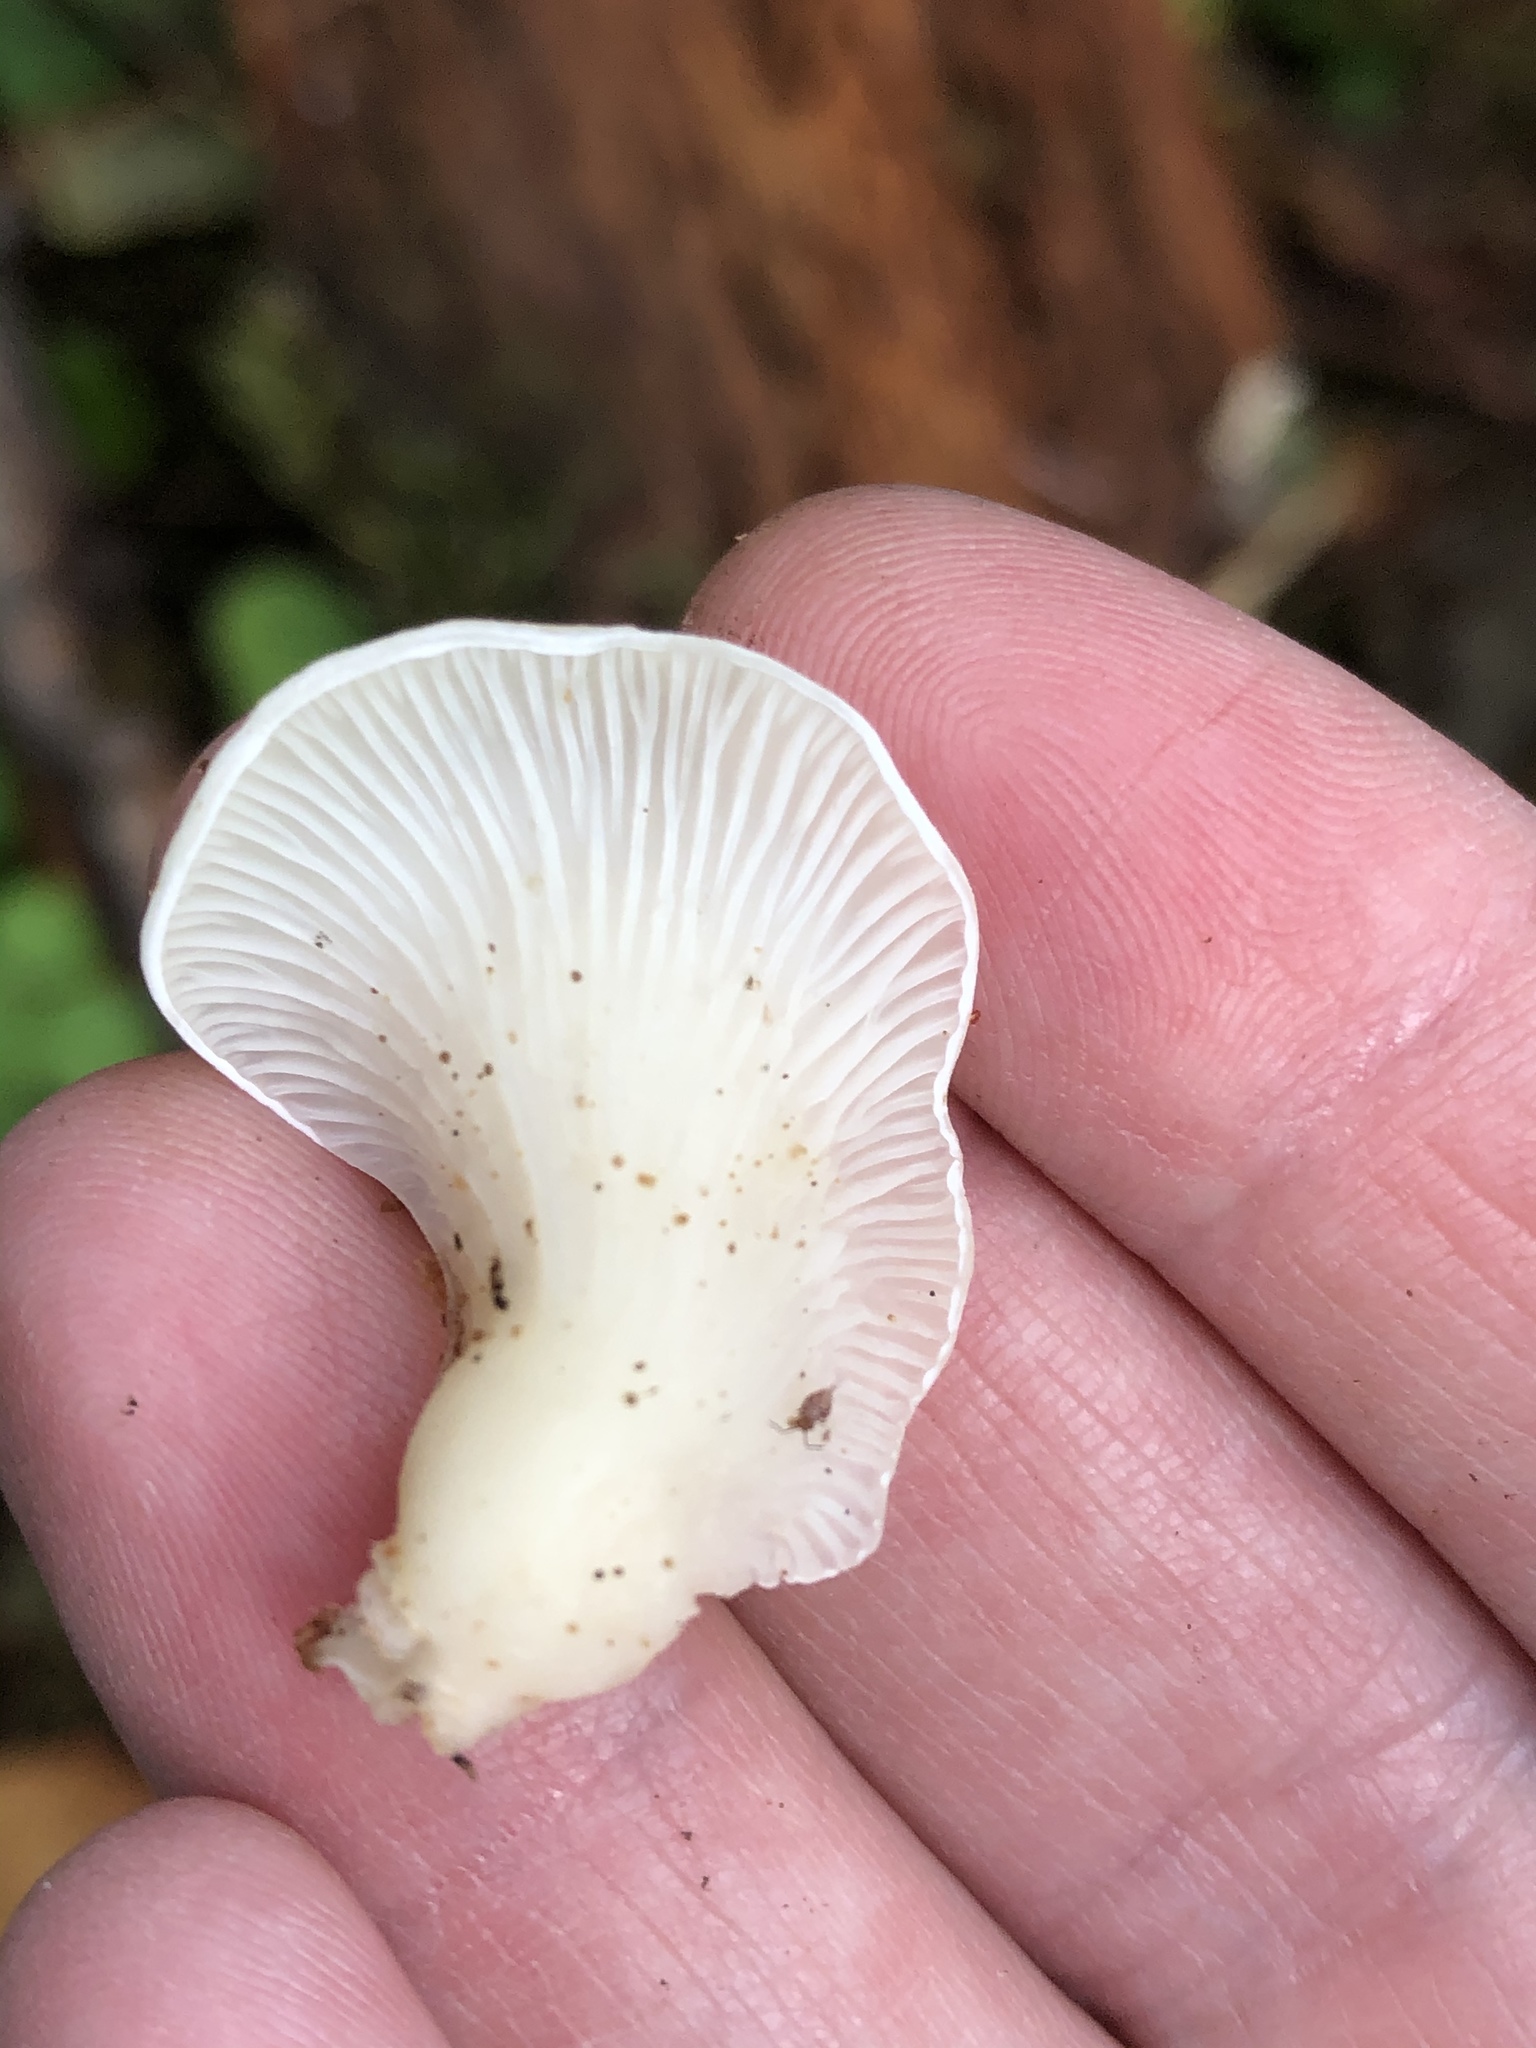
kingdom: Fungi
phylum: Basidiomycota
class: Agaricomycetes
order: Agaricales
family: Marasmiaceae
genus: Pleurocybella
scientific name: Pleurocybella porrigens
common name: Angel's wings
